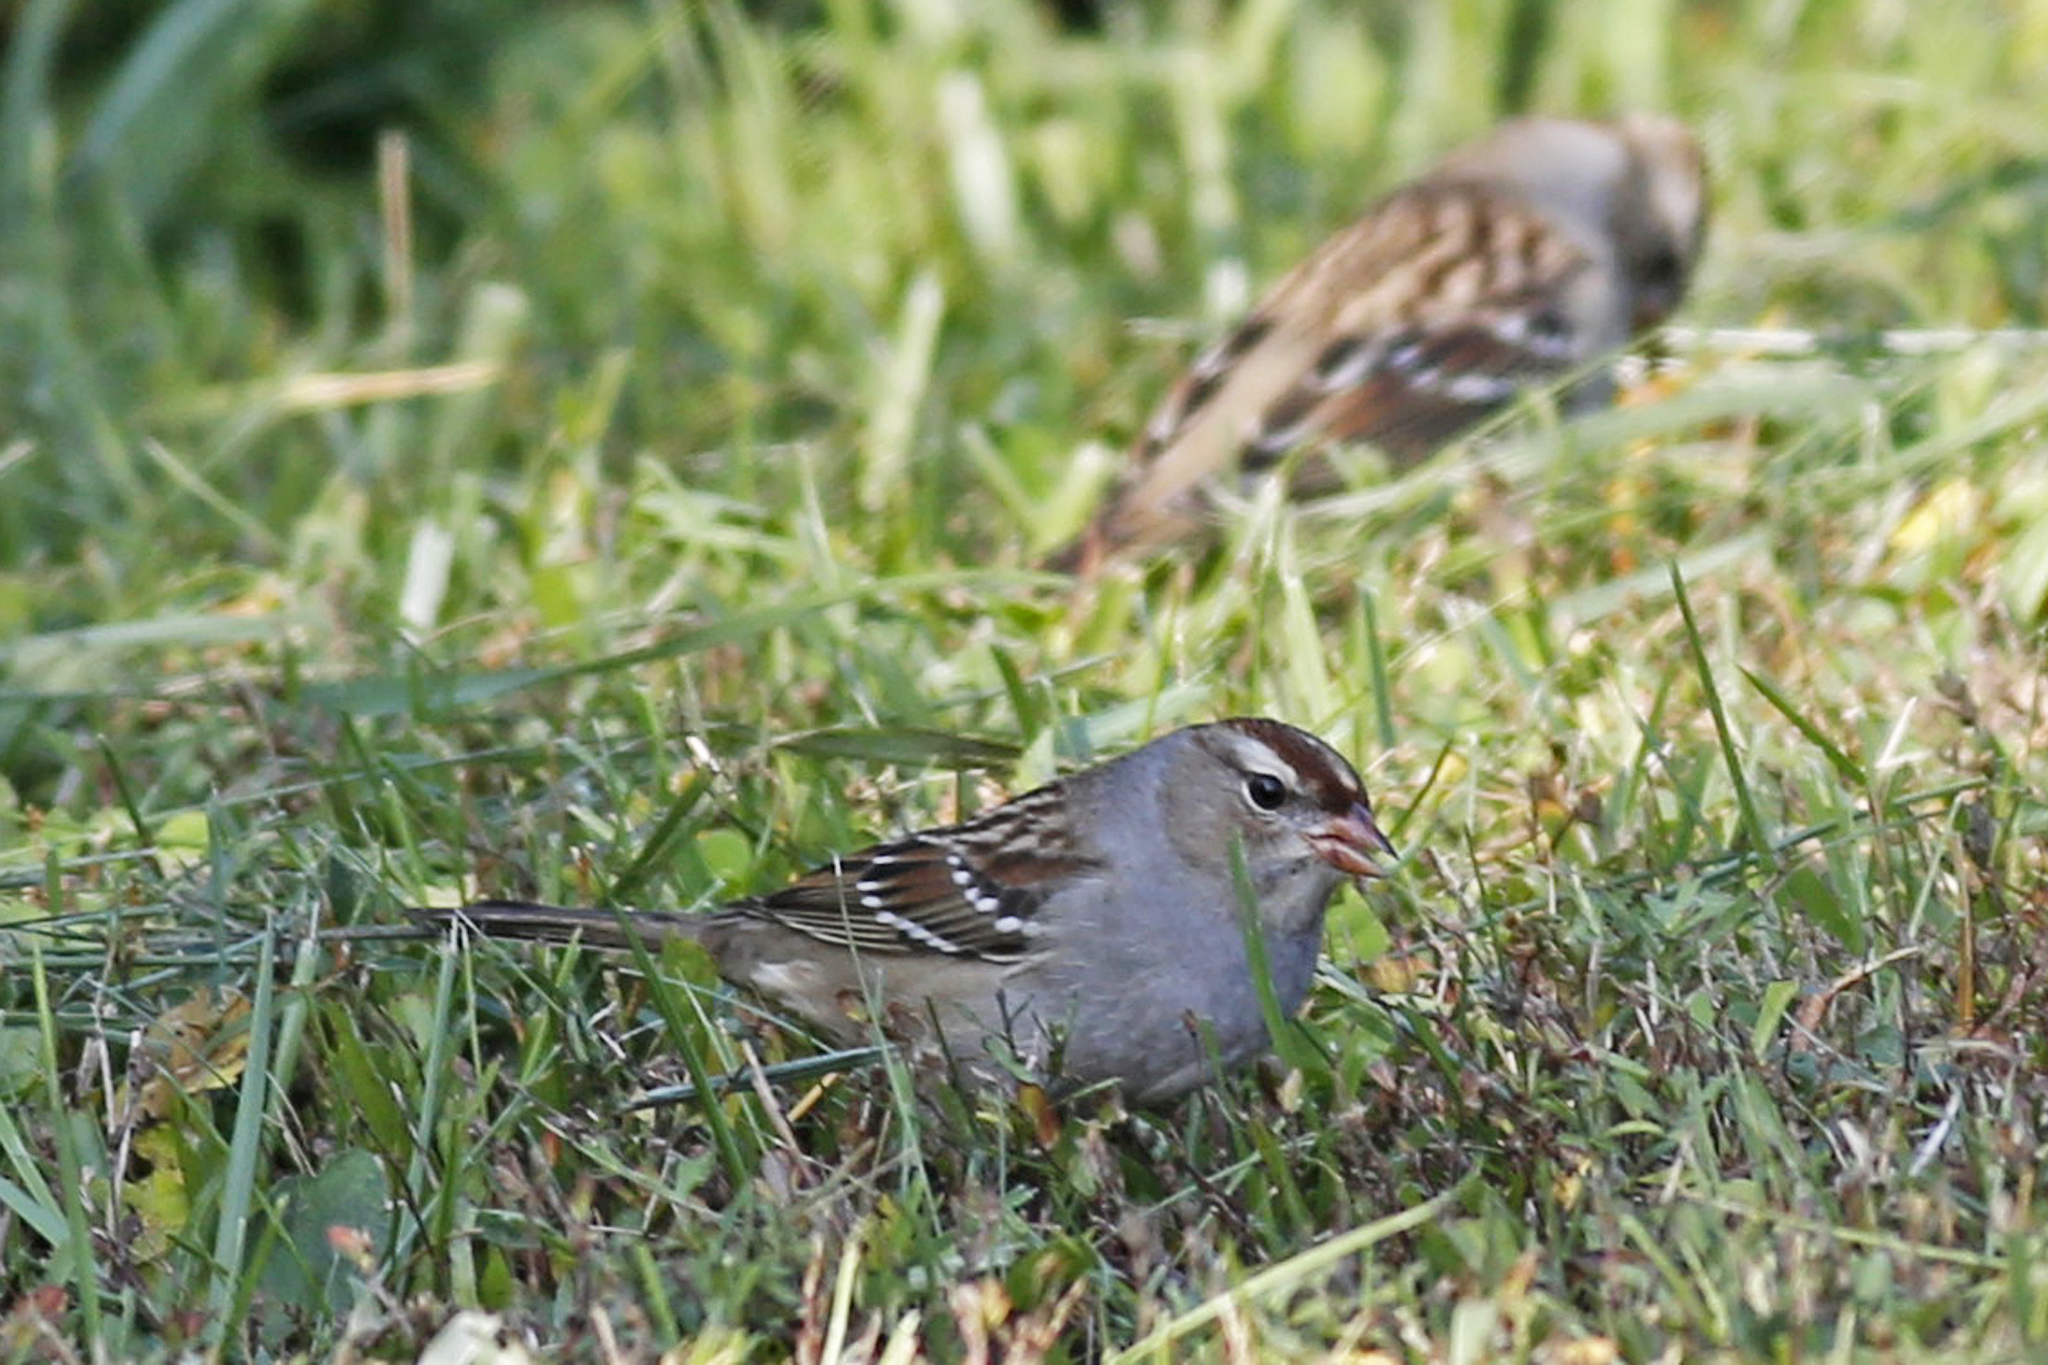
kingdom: Animalia
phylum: Chordata
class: Aves
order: Passeriformes
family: Passerellidae
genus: Zonotrichia
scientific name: Zonotrichia leucophrys
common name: White-crowned sparrow
